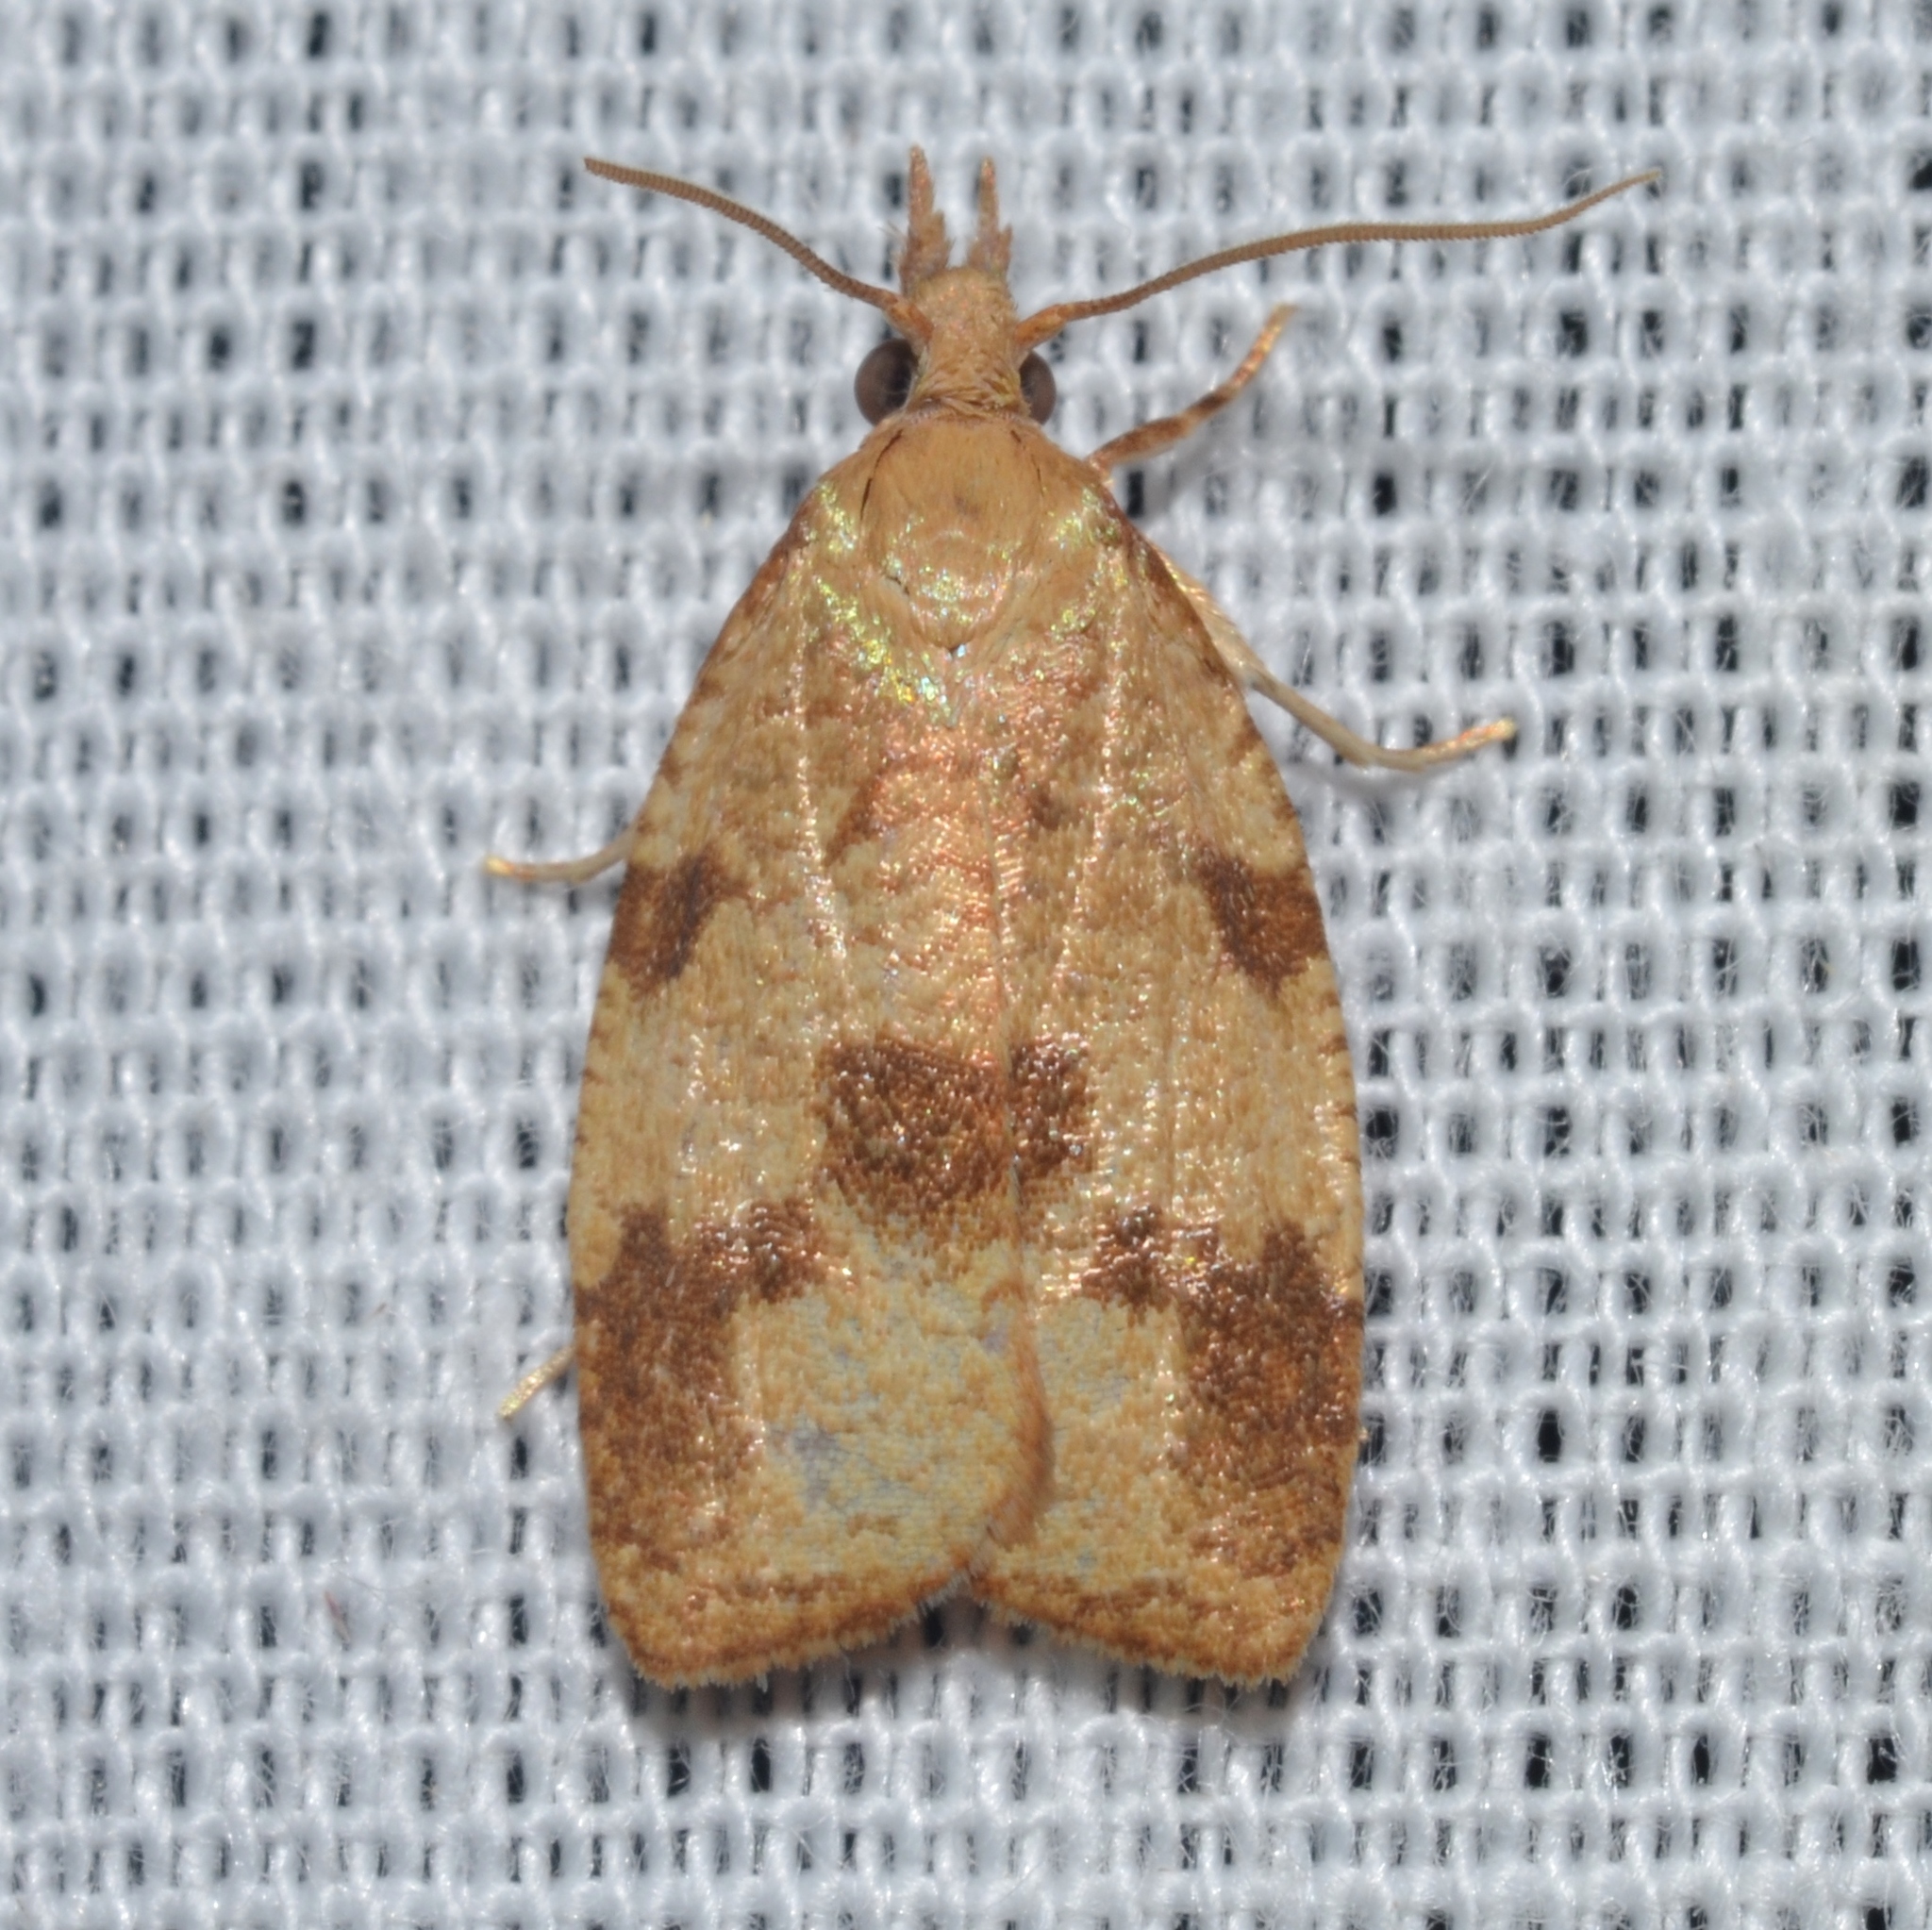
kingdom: Animalia
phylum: Arthropoda
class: Insecta
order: Lepidoptera
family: Tortricidae
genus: Cenopis
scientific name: Cenopis saracana
